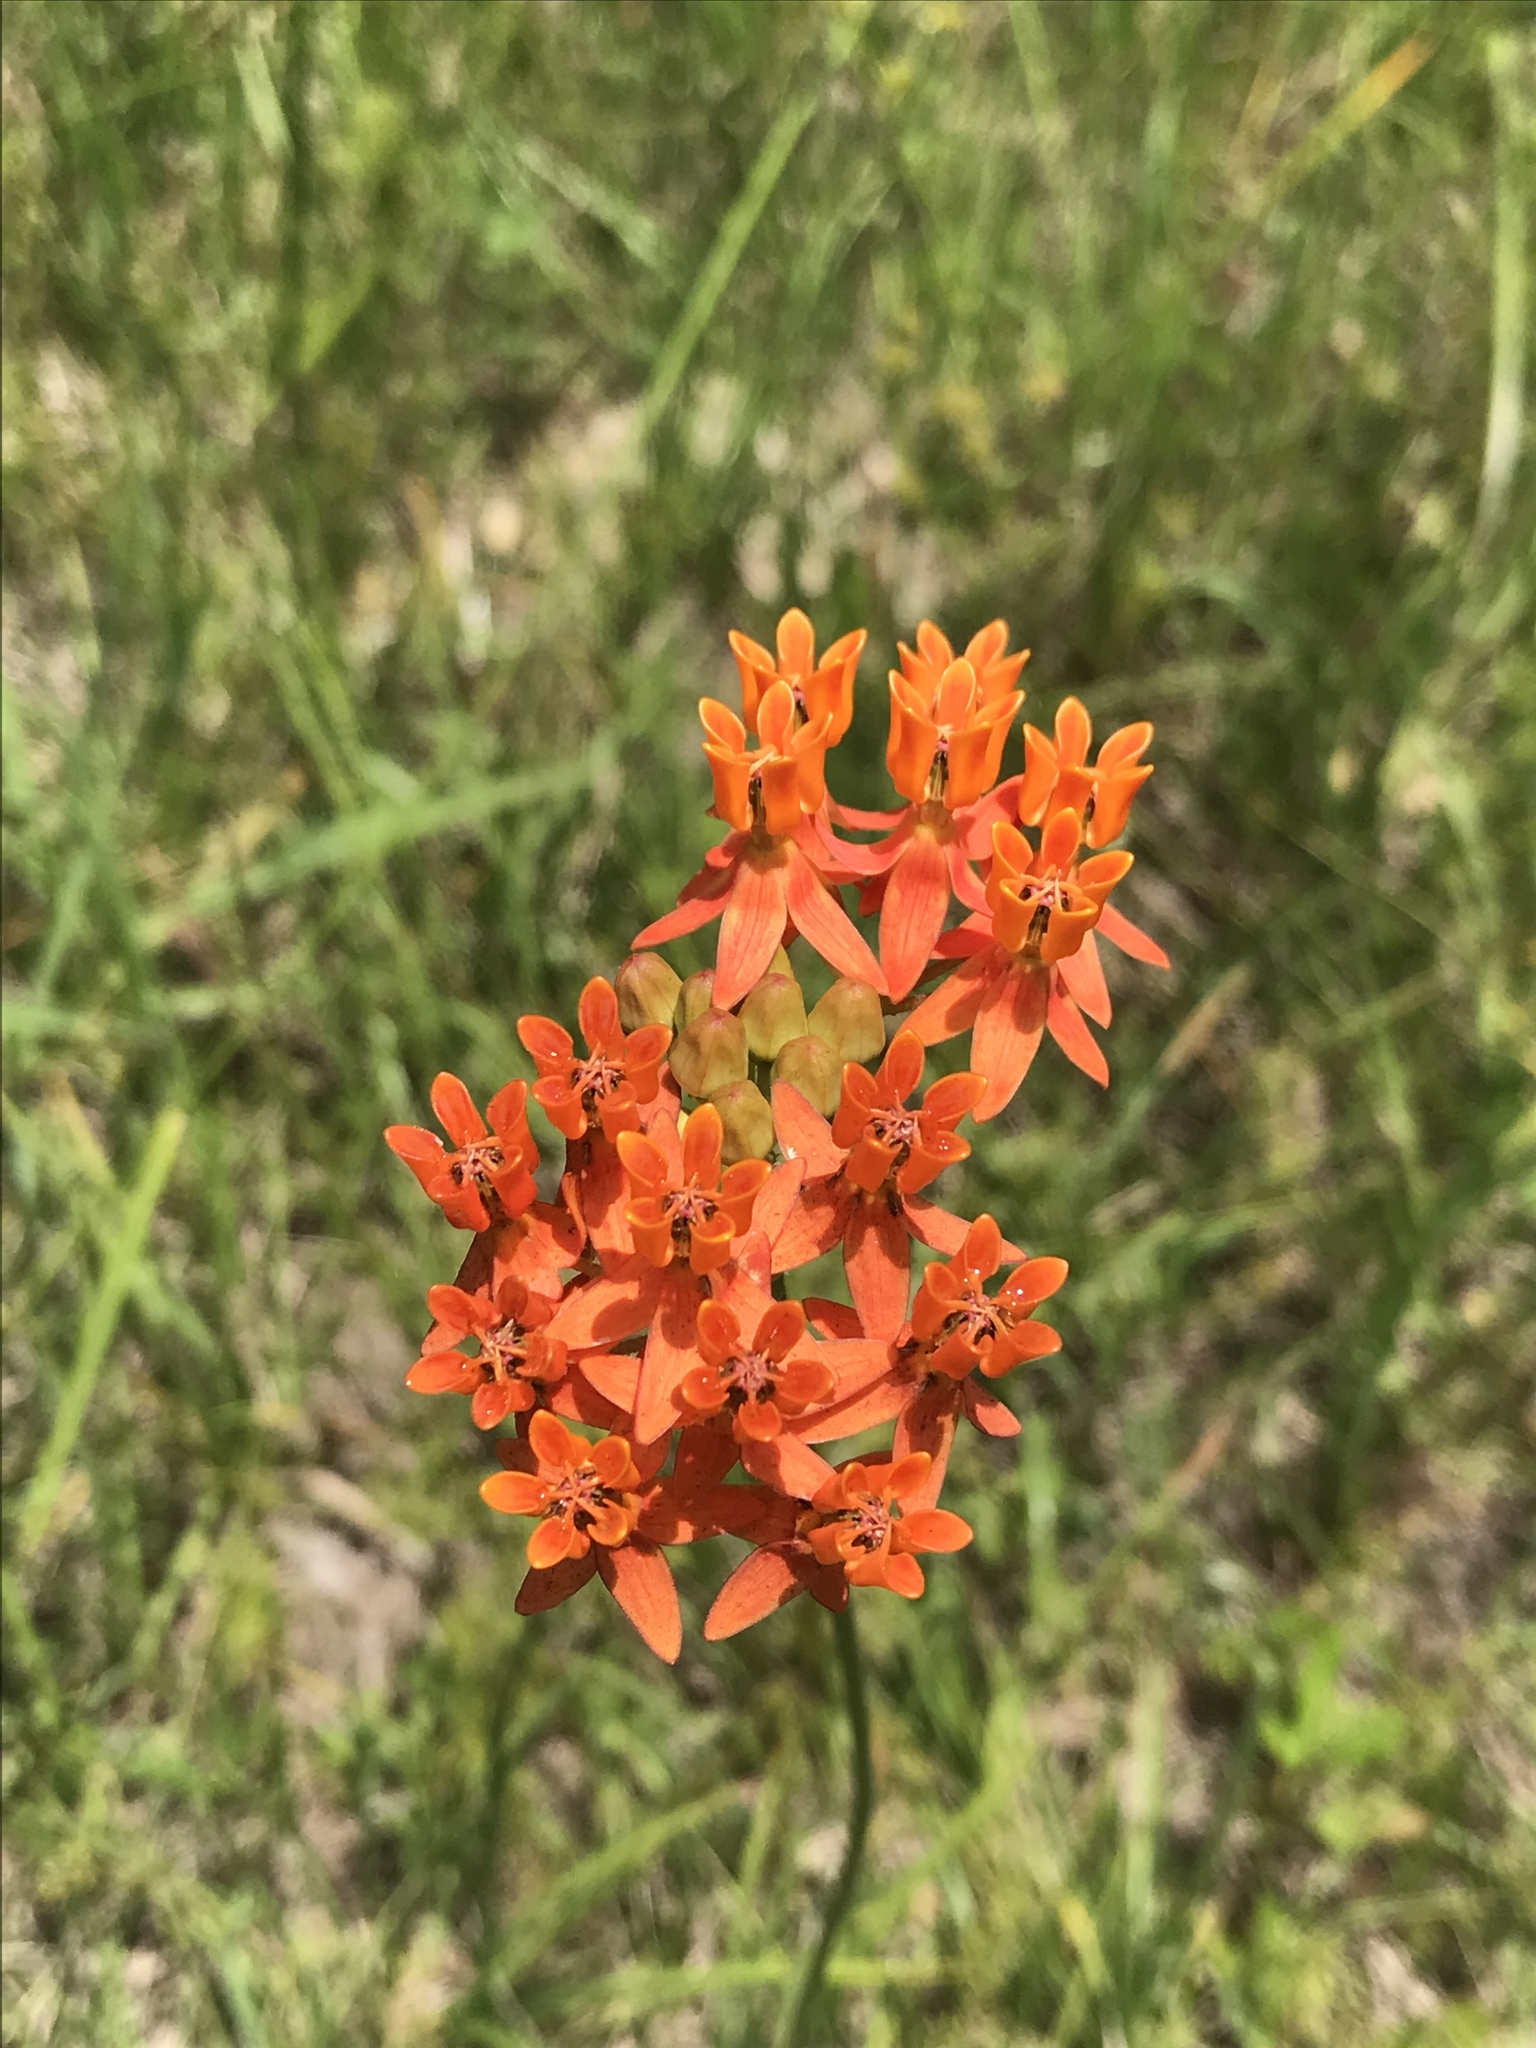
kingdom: Plantae
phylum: Tracheophyta
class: Magnoliopsida
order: Gentianales
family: Apocynaceae
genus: Asclepias
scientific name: Asclepias lanceolata
